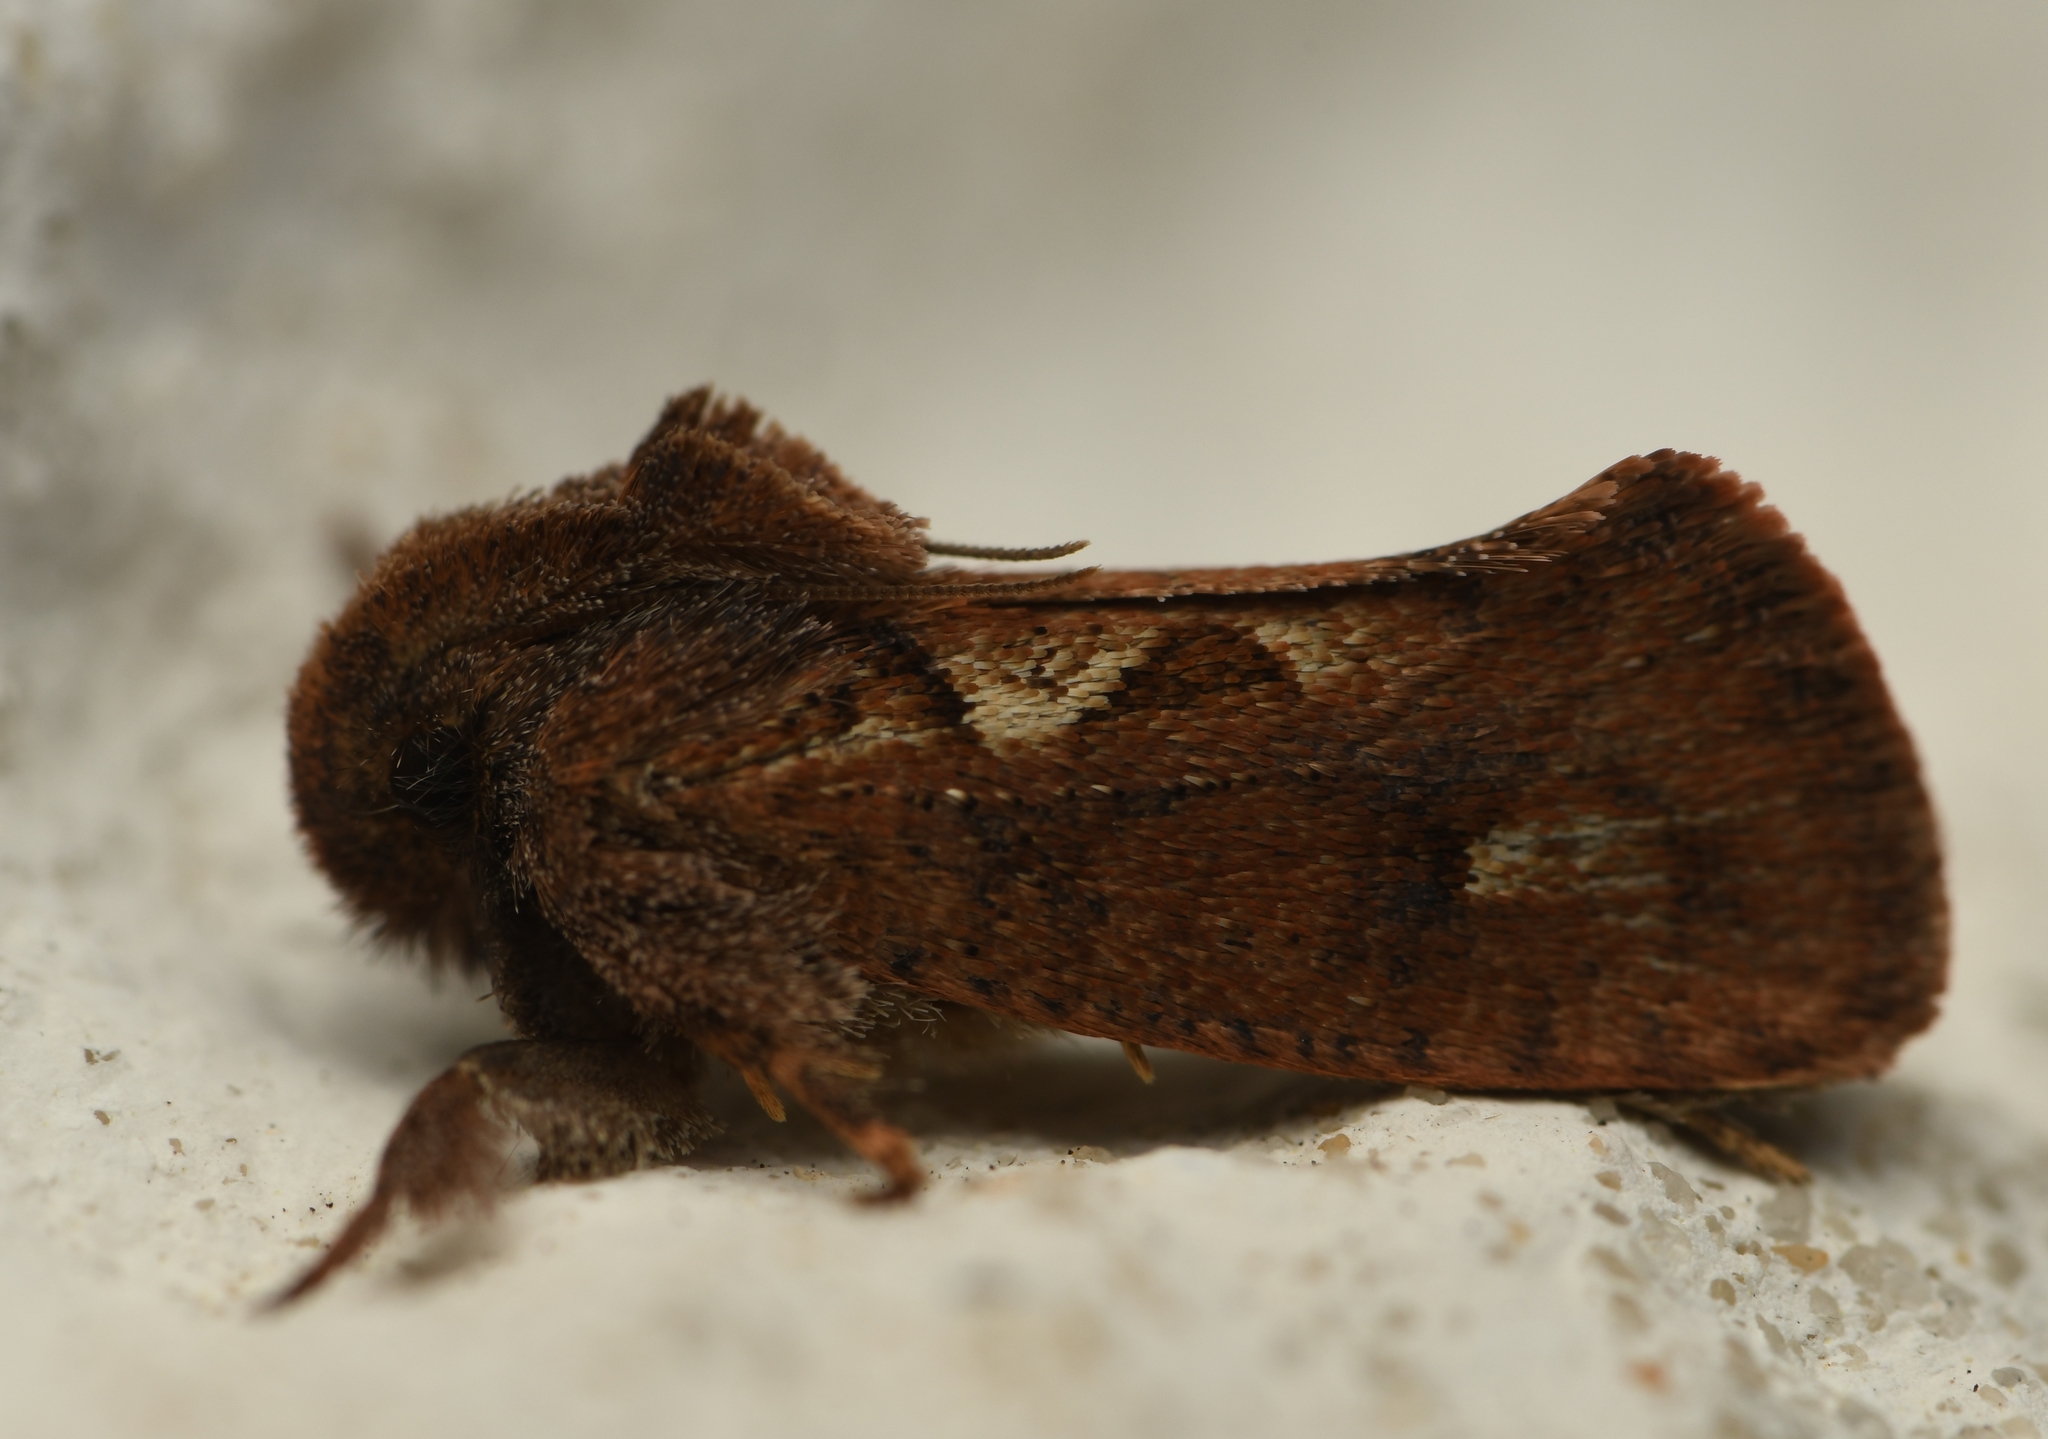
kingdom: Animalia
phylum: Arthropoda
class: Insecta
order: Lepidoptera
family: Tineidae
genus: Acrolophus
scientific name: Acrolophus walsinghami
